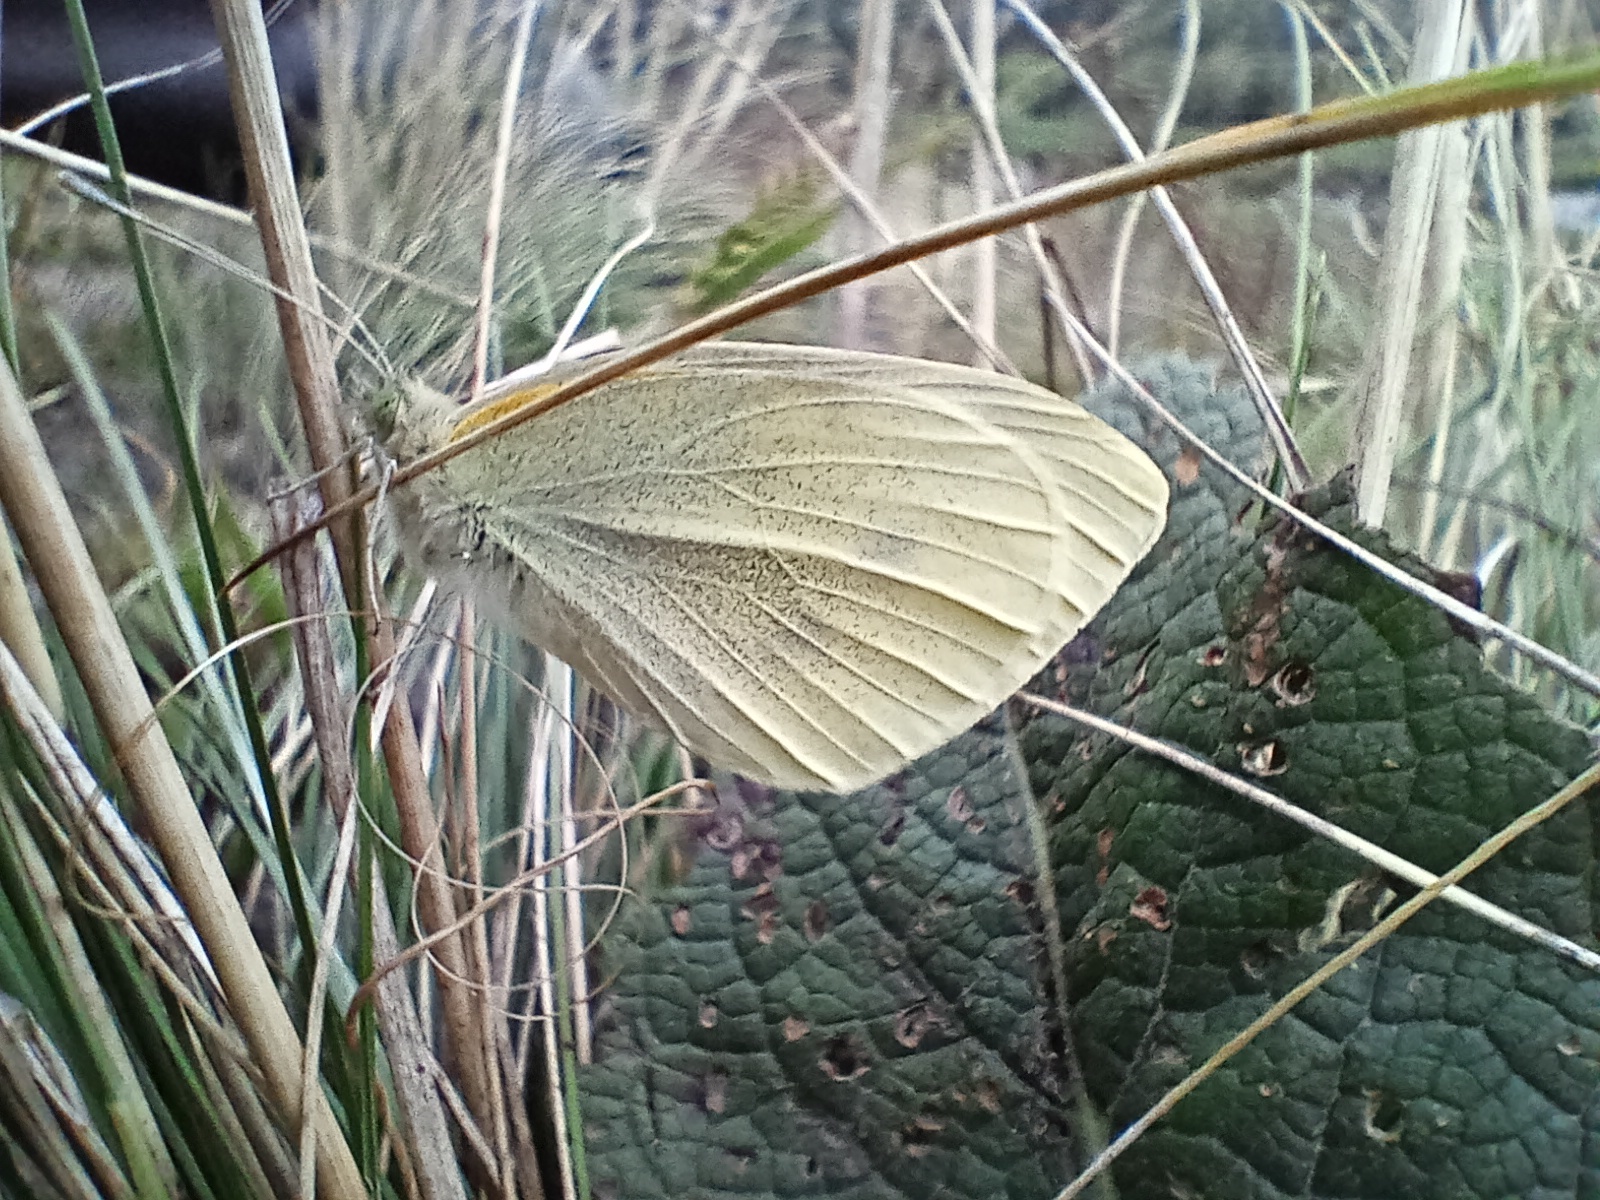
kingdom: Animalia
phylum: Arthropoda
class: Insecta
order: Lepidoptera
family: Pieridae
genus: Pieris
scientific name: Pieris rapae
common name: Small white
